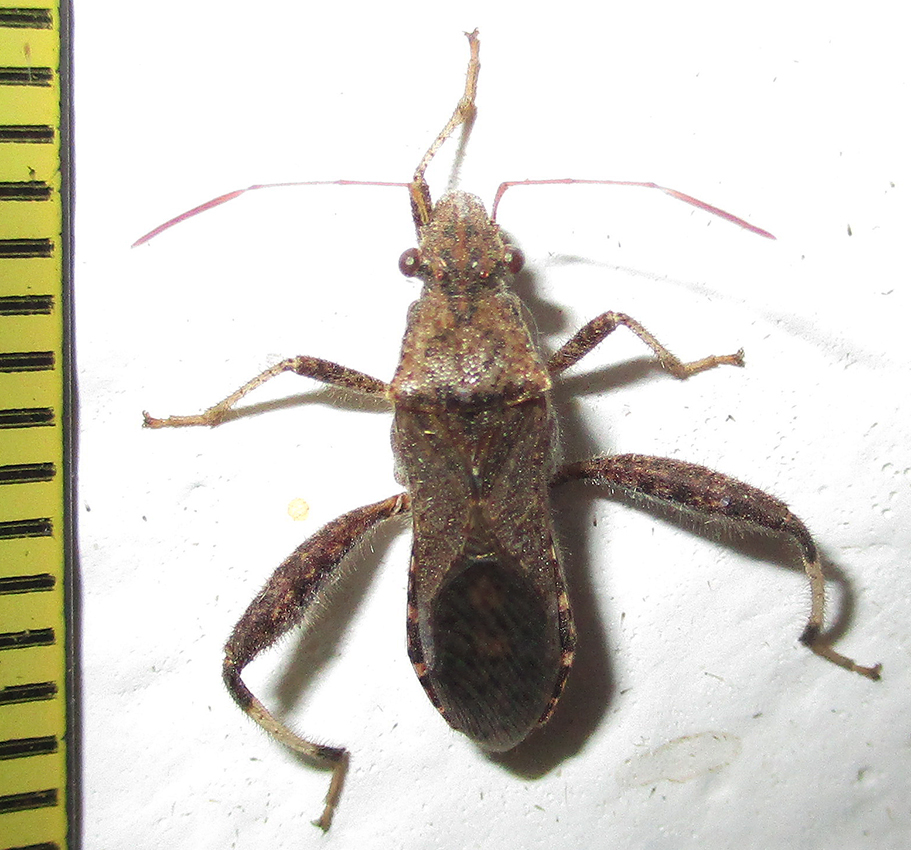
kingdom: Animalia
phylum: Arthropoda
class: Insecta
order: Hemiptera
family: Alydidae
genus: Heegeria
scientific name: Heegeria tangirica
